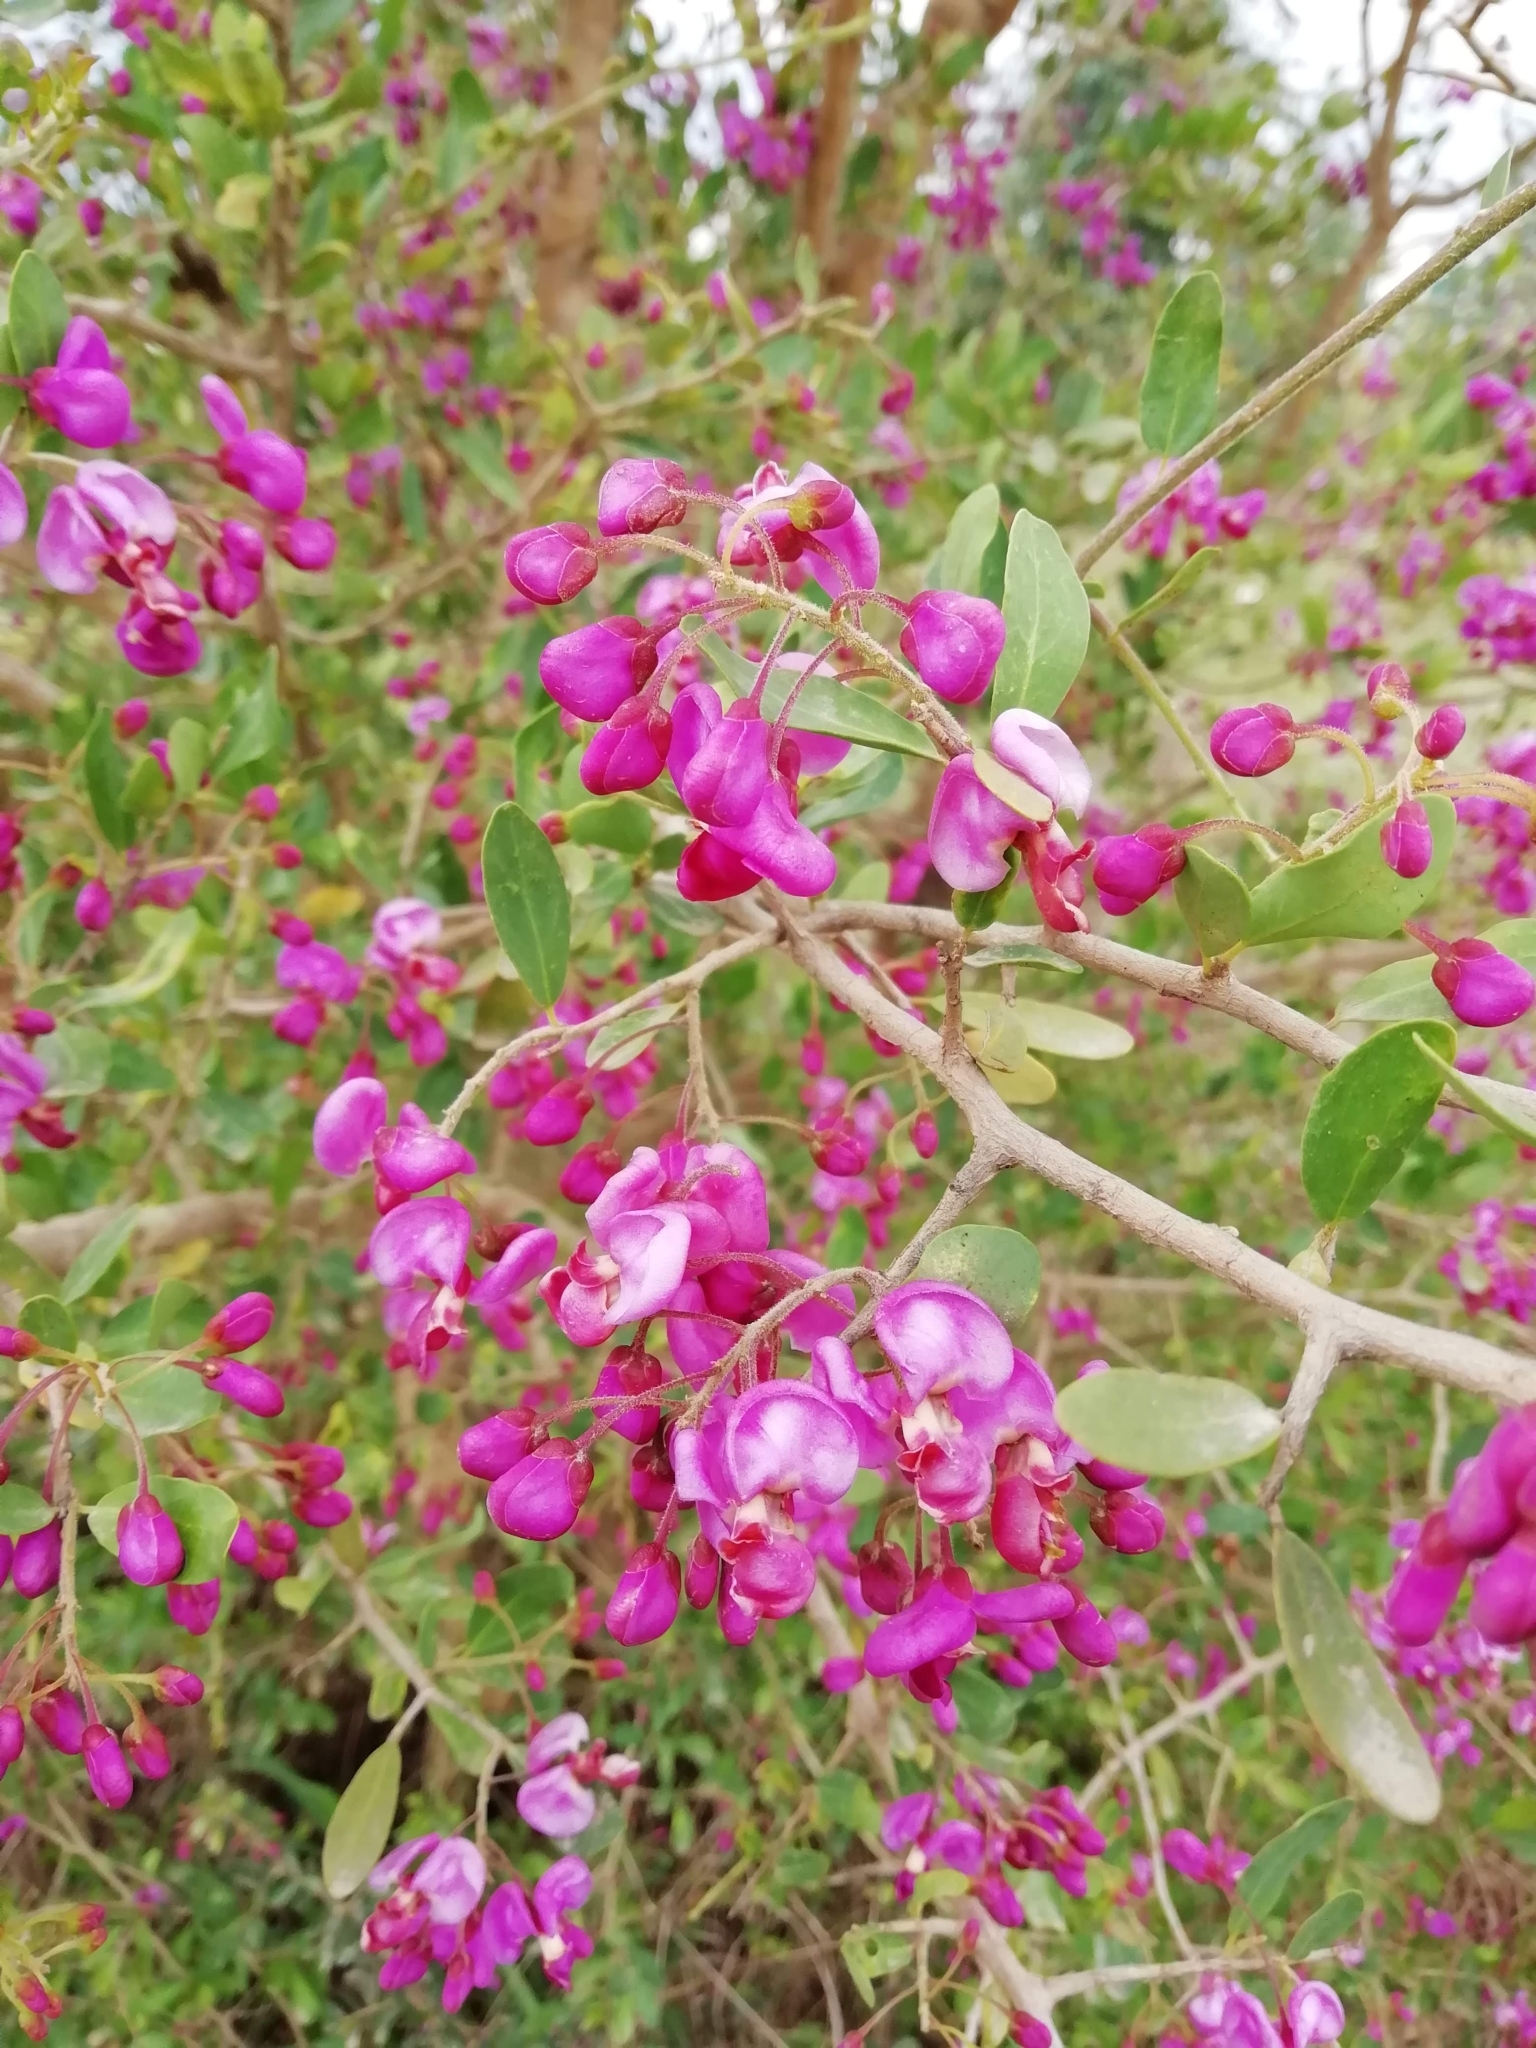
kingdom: Plantae
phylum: Tracheophyta
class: Magnoliopsida
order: Fabales
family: Polygalaceae
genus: Securidaca
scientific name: Securidaca longepedunculata
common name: Violet tree
